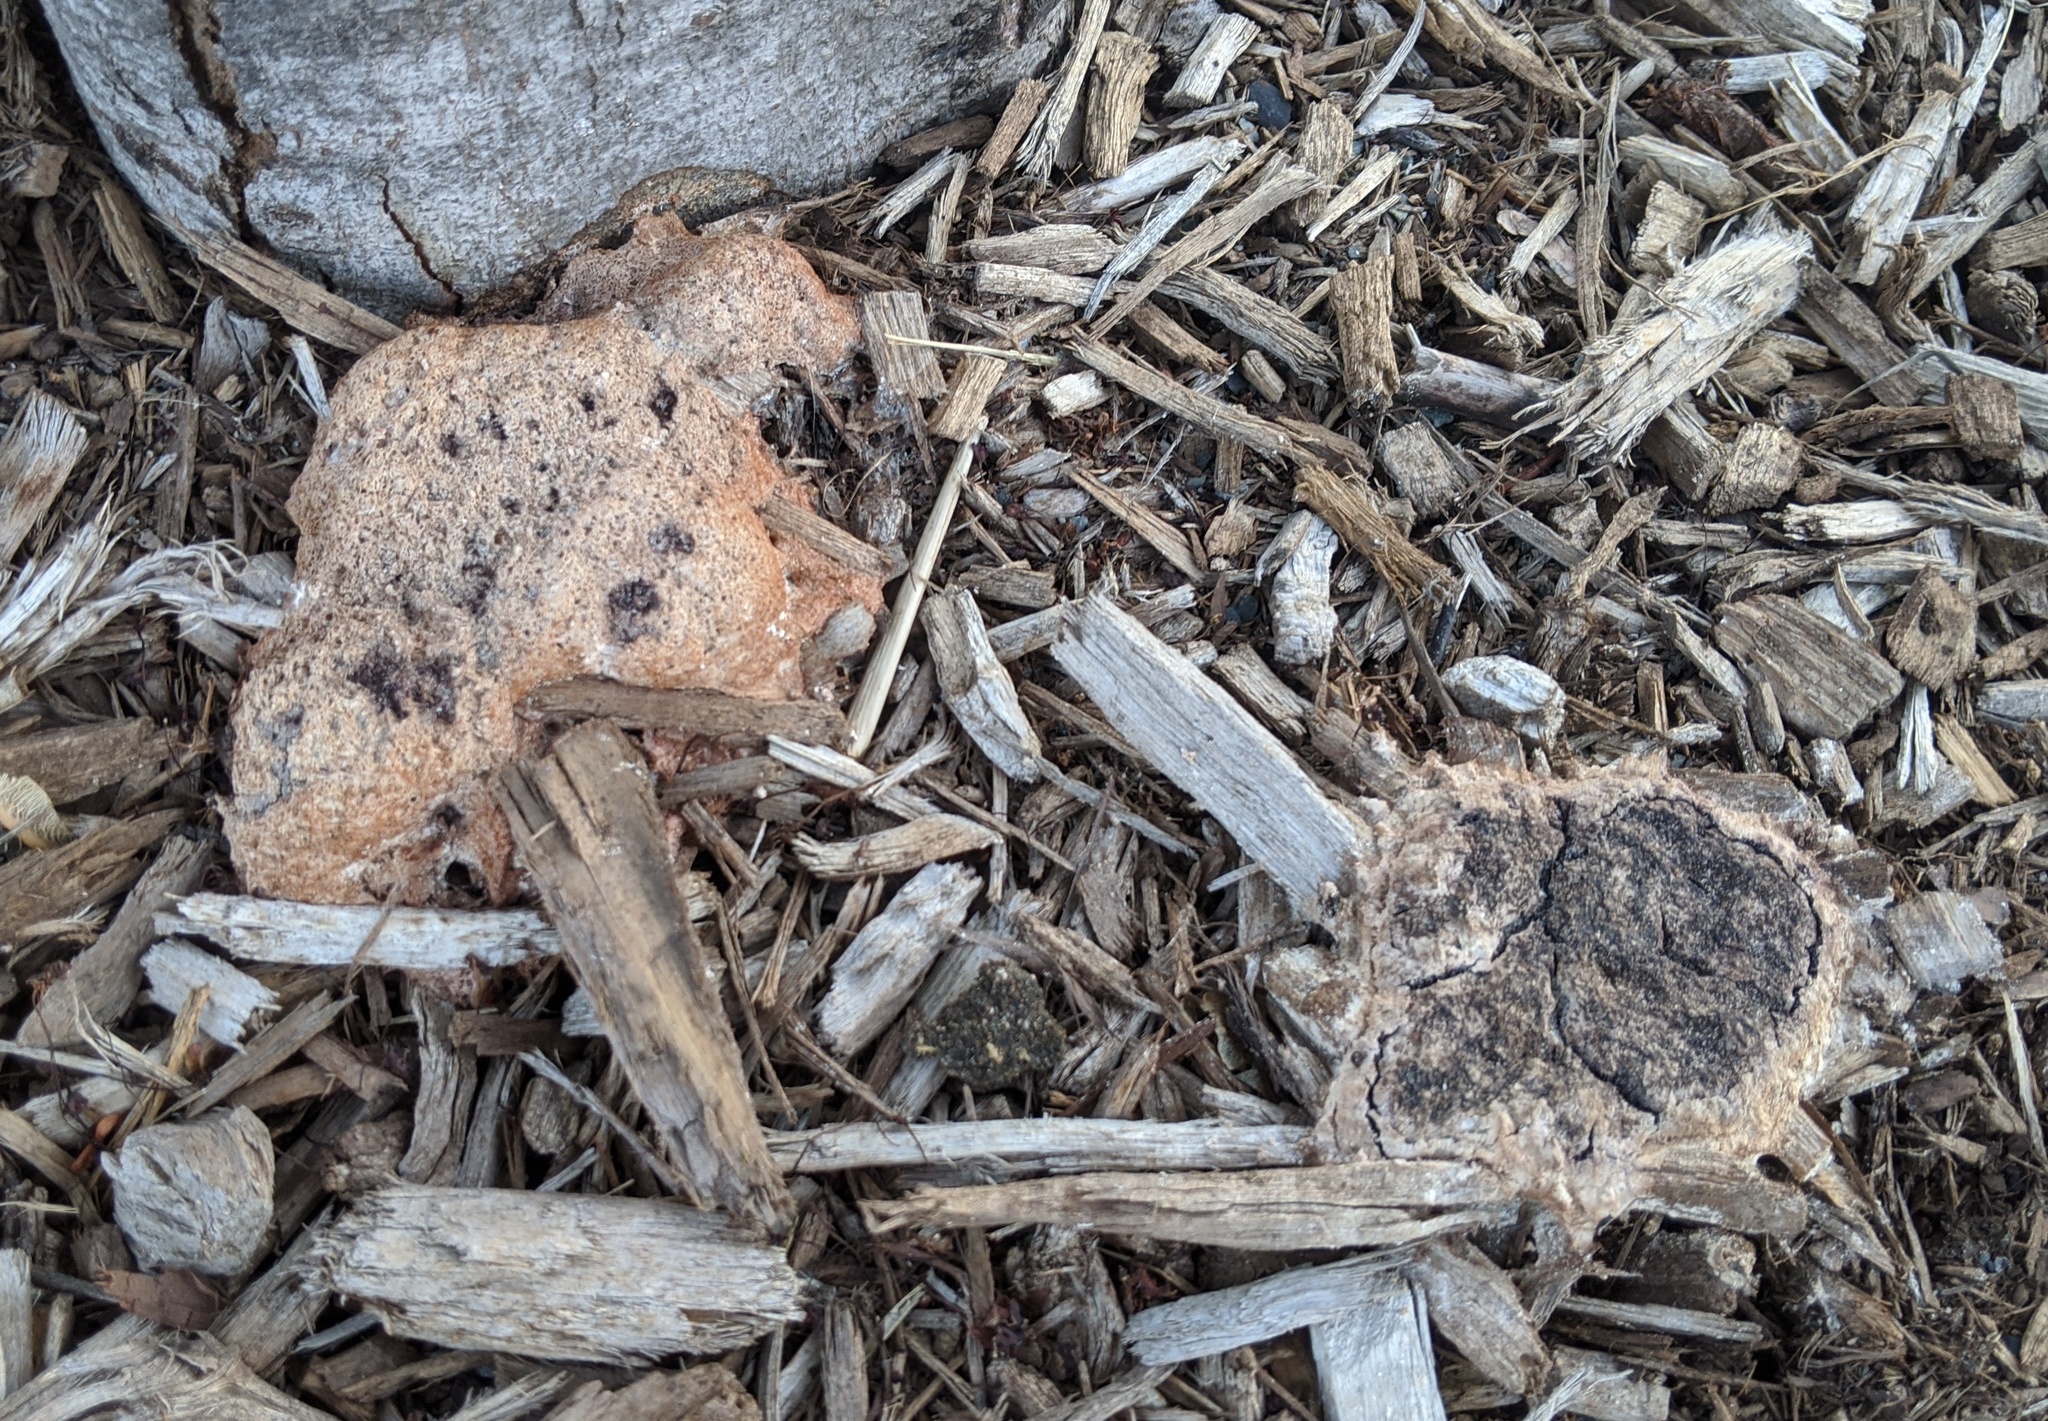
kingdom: Protozoa
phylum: Mycetozoa
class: Myxomycetes
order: Physarales
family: Physaraceae
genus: Fuligo
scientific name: Fuligo septica
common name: Dog vomit slime mold
